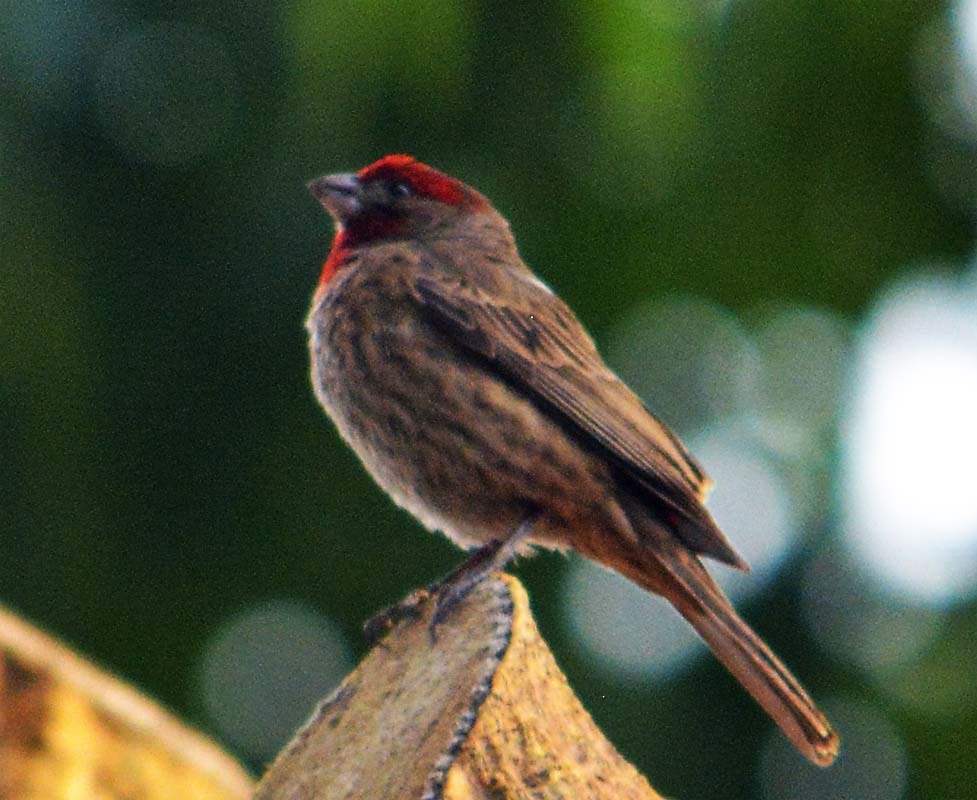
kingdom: Animalia
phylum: Chordata
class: Aves
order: Passeriformes
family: Fringillidae
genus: Haemorhous
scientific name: Haemorhous mexicanus
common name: House finch
